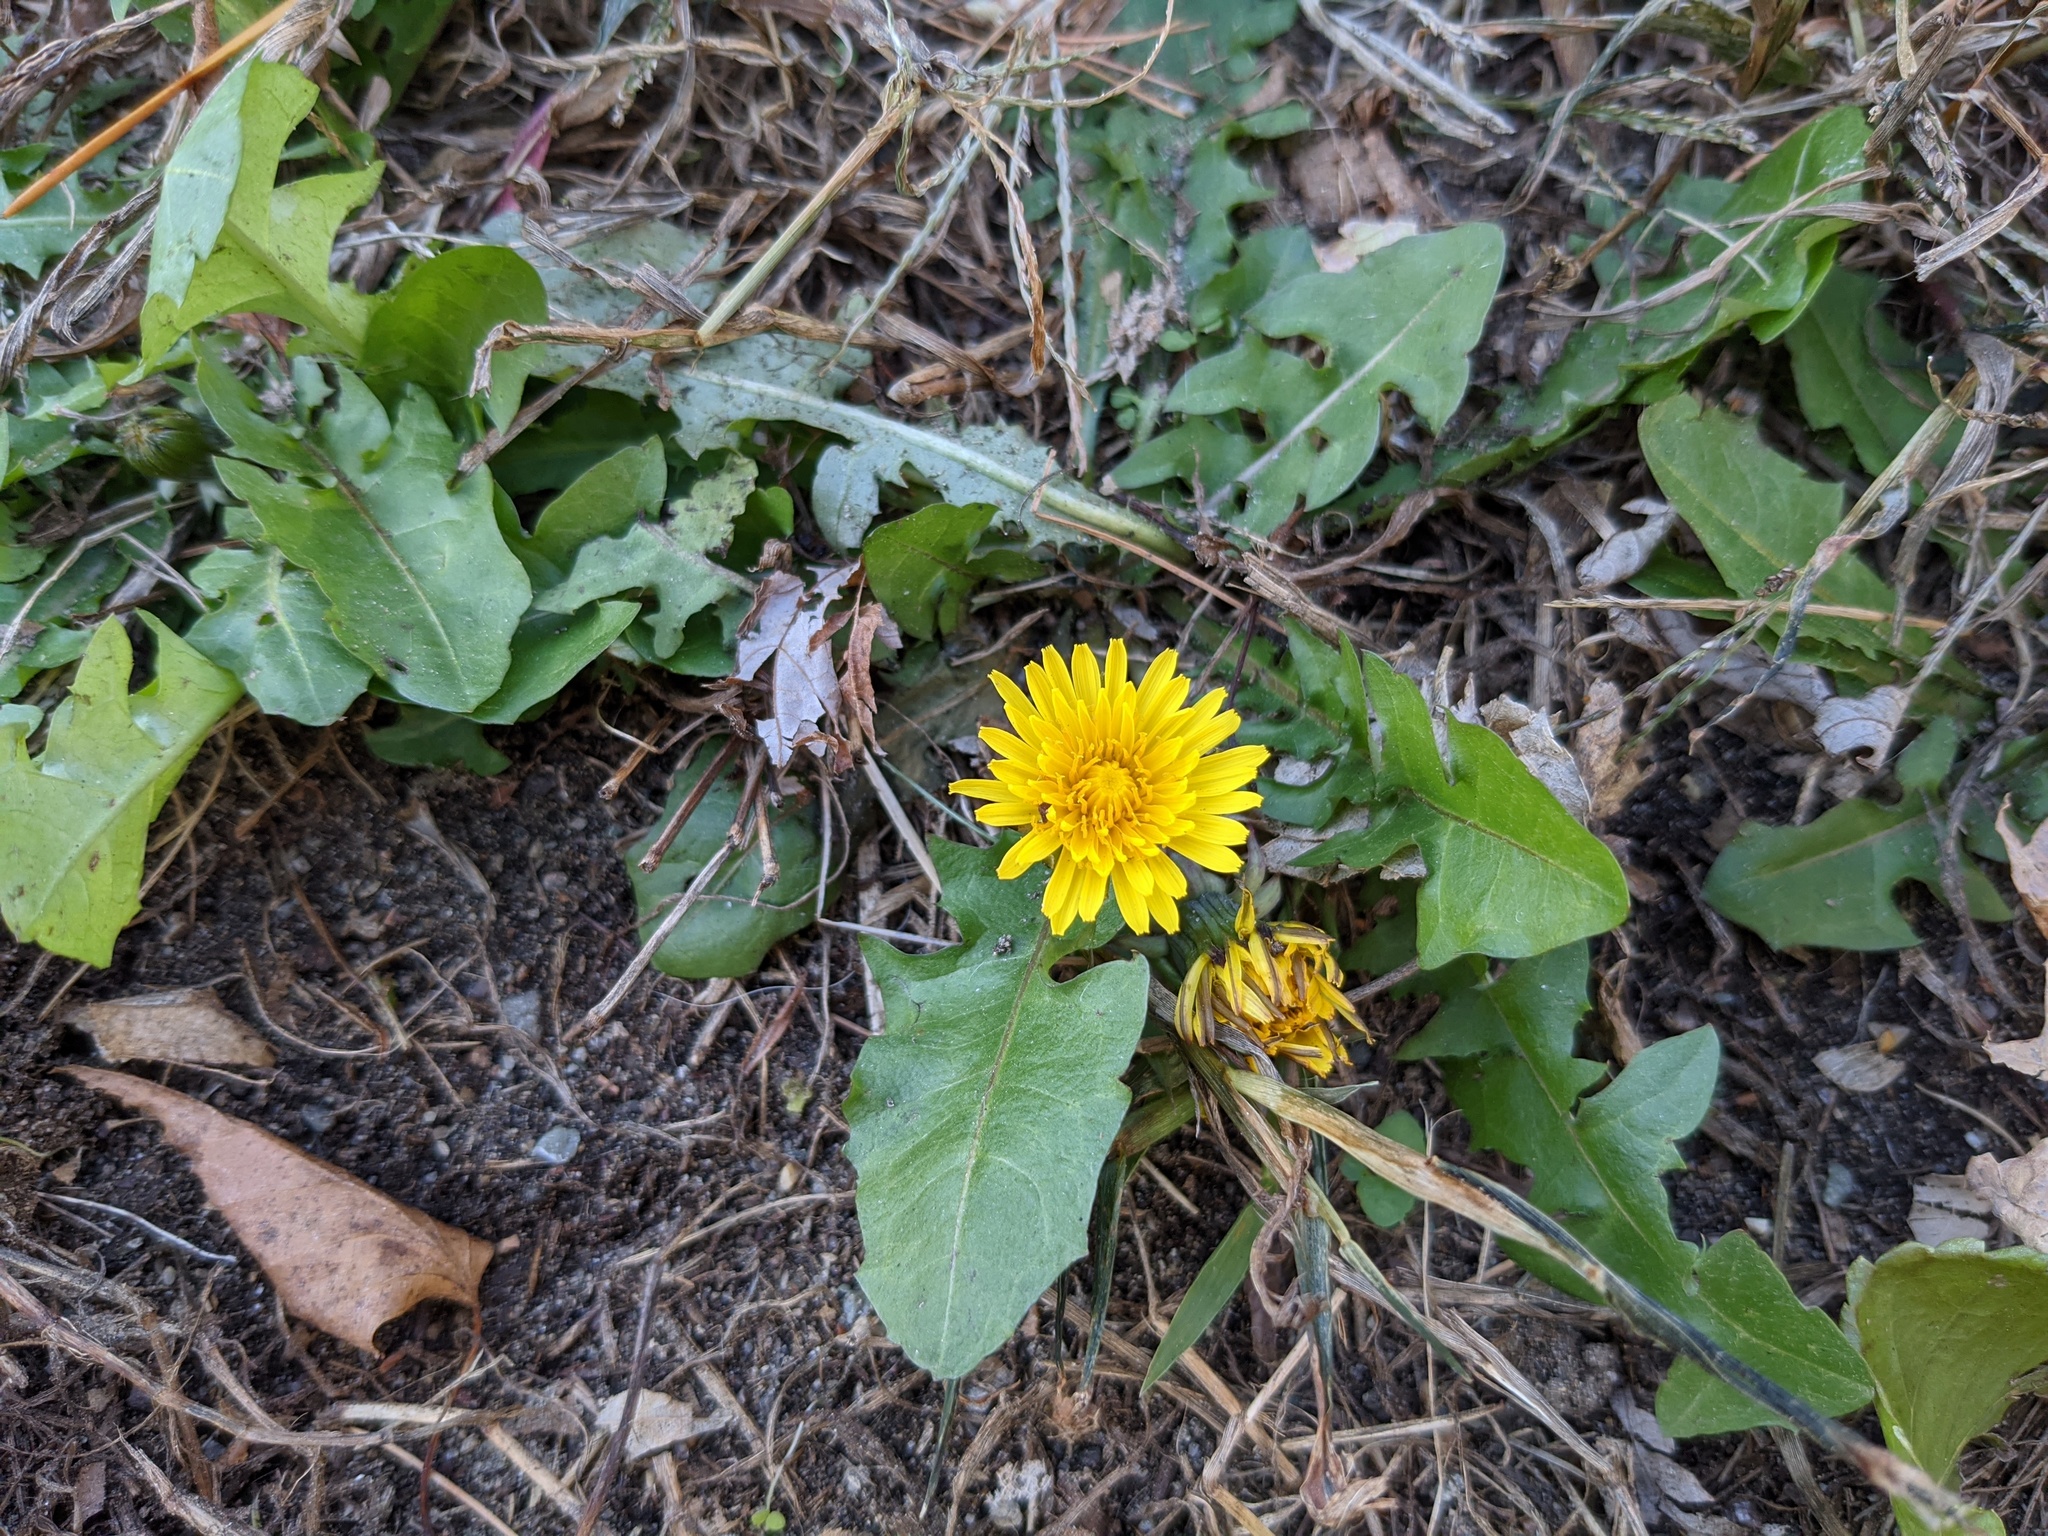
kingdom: Plantae
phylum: Tracheophyta
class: Magnoliopsida
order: Asterales
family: Asteraceae
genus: Taraxacum
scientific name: Taraxacum officinale
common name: Common dandelion
